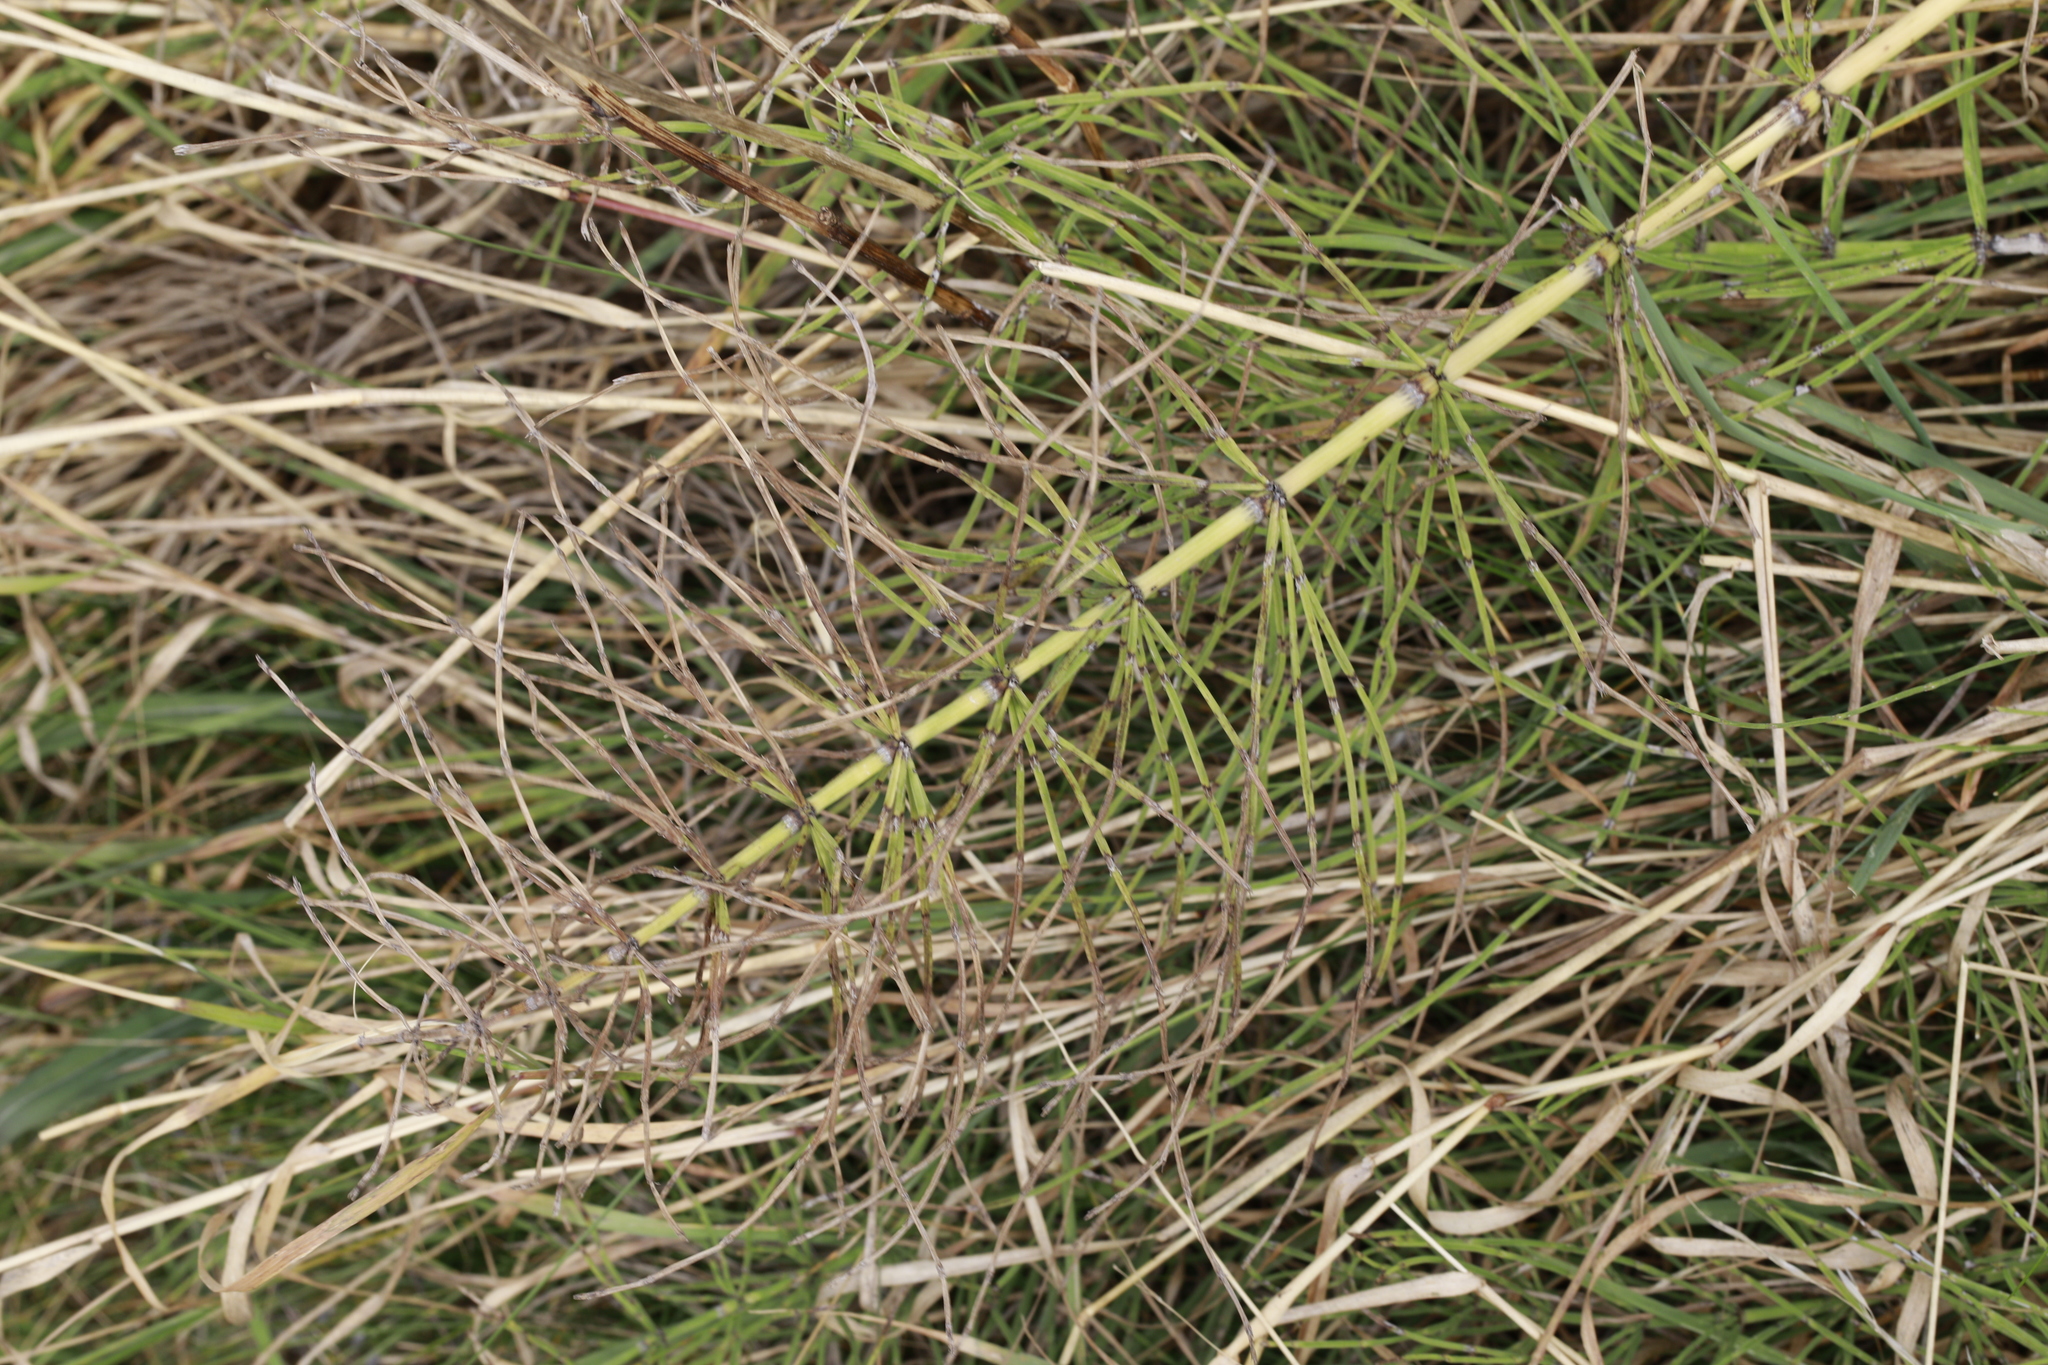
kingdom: Plantae
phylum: Tracheophyta
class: Polypodiopsida
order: Equisetales
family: Equisetaceae
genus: Equisetum
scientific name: Equisetum arvense
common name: Field horsetail
